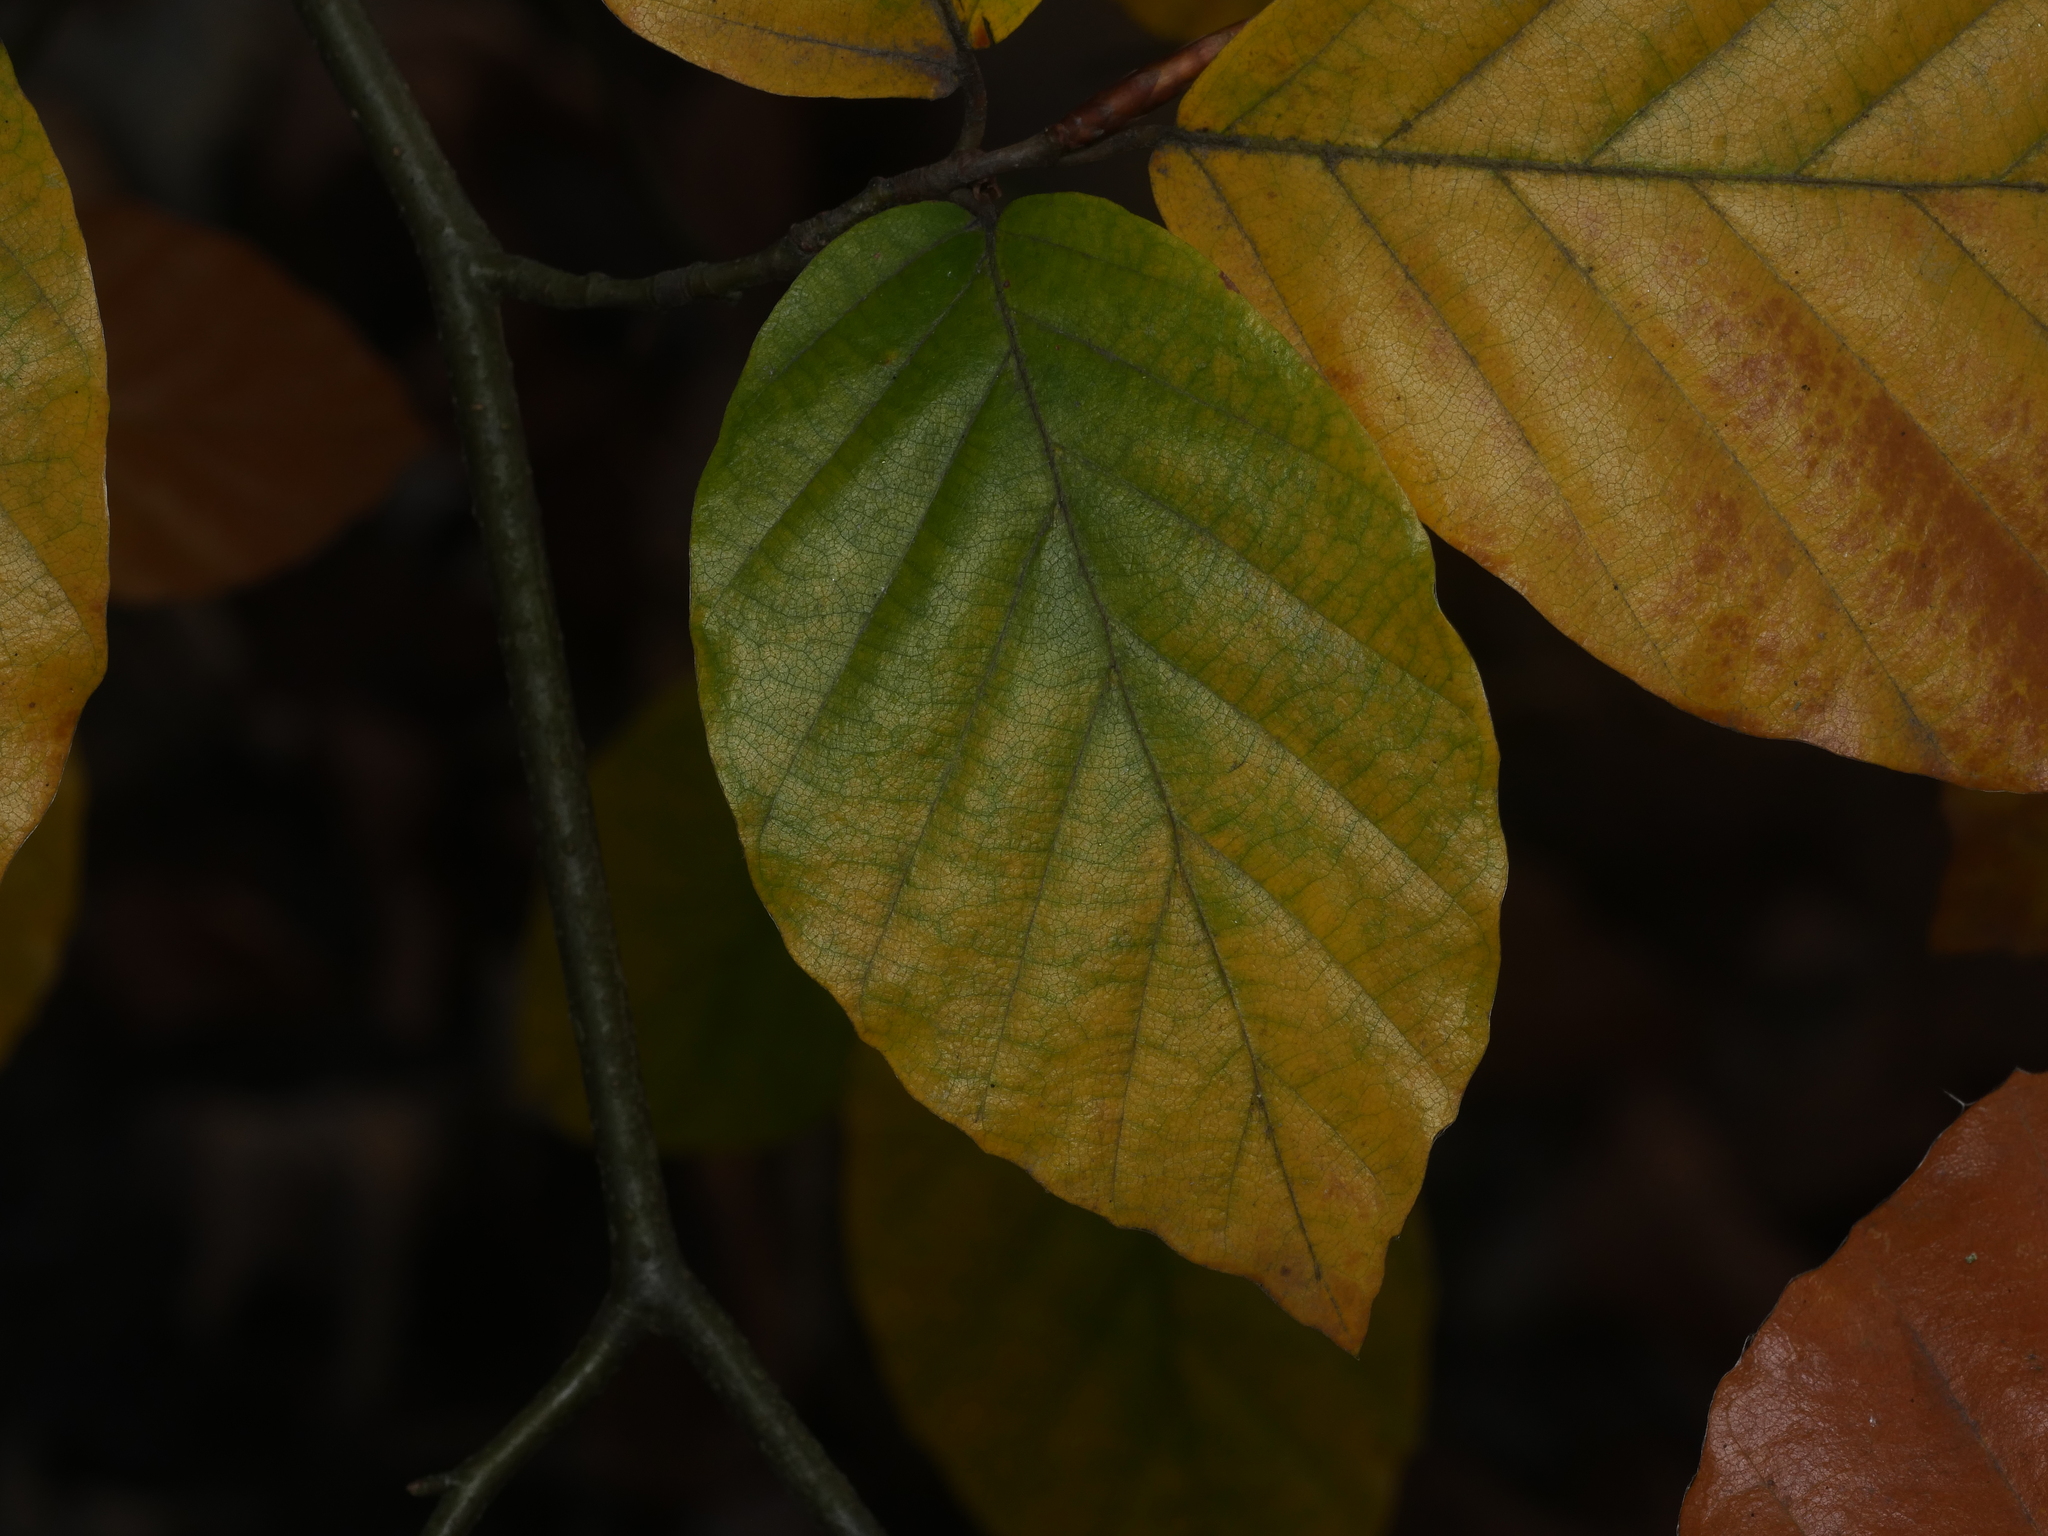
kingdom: Plantae
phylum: Tracheophyta
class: Magnoliopsida
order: Fagales
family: Fagaceae
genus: Fagus
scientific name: Fagus sylvatica
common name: Beech
